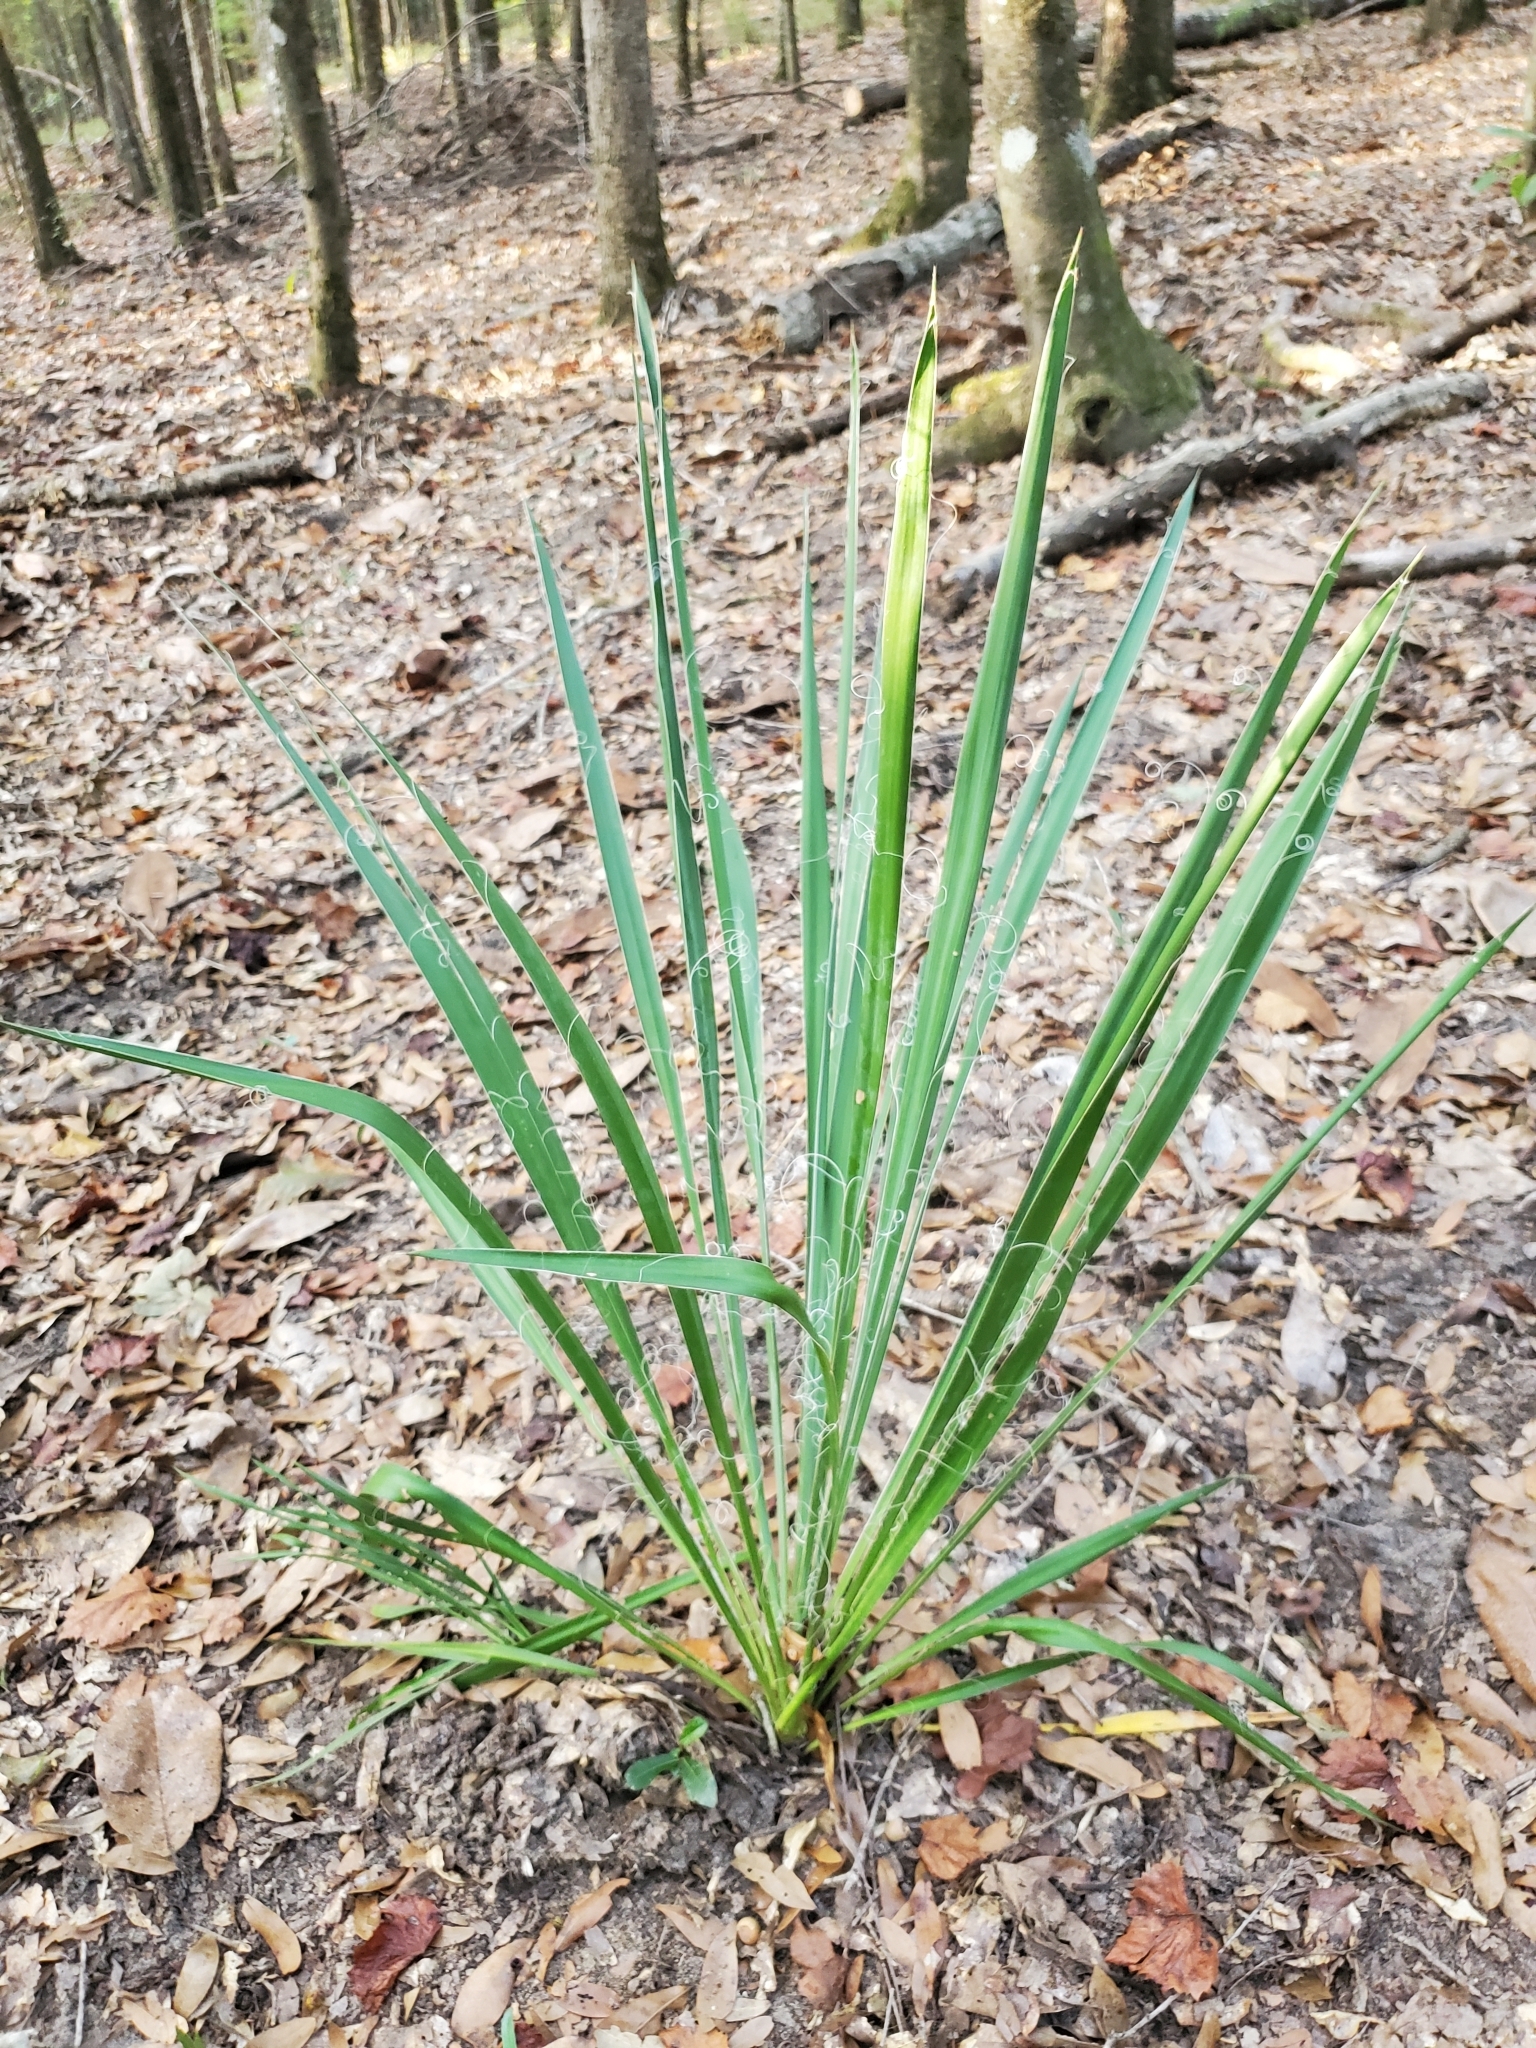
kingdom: Plantae
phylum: Tracheophyta
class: Liliopsida
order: Asparagales
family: Asparagaceae
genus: Yucca
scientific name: Yucca filamentosa
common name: Adam's-needle
